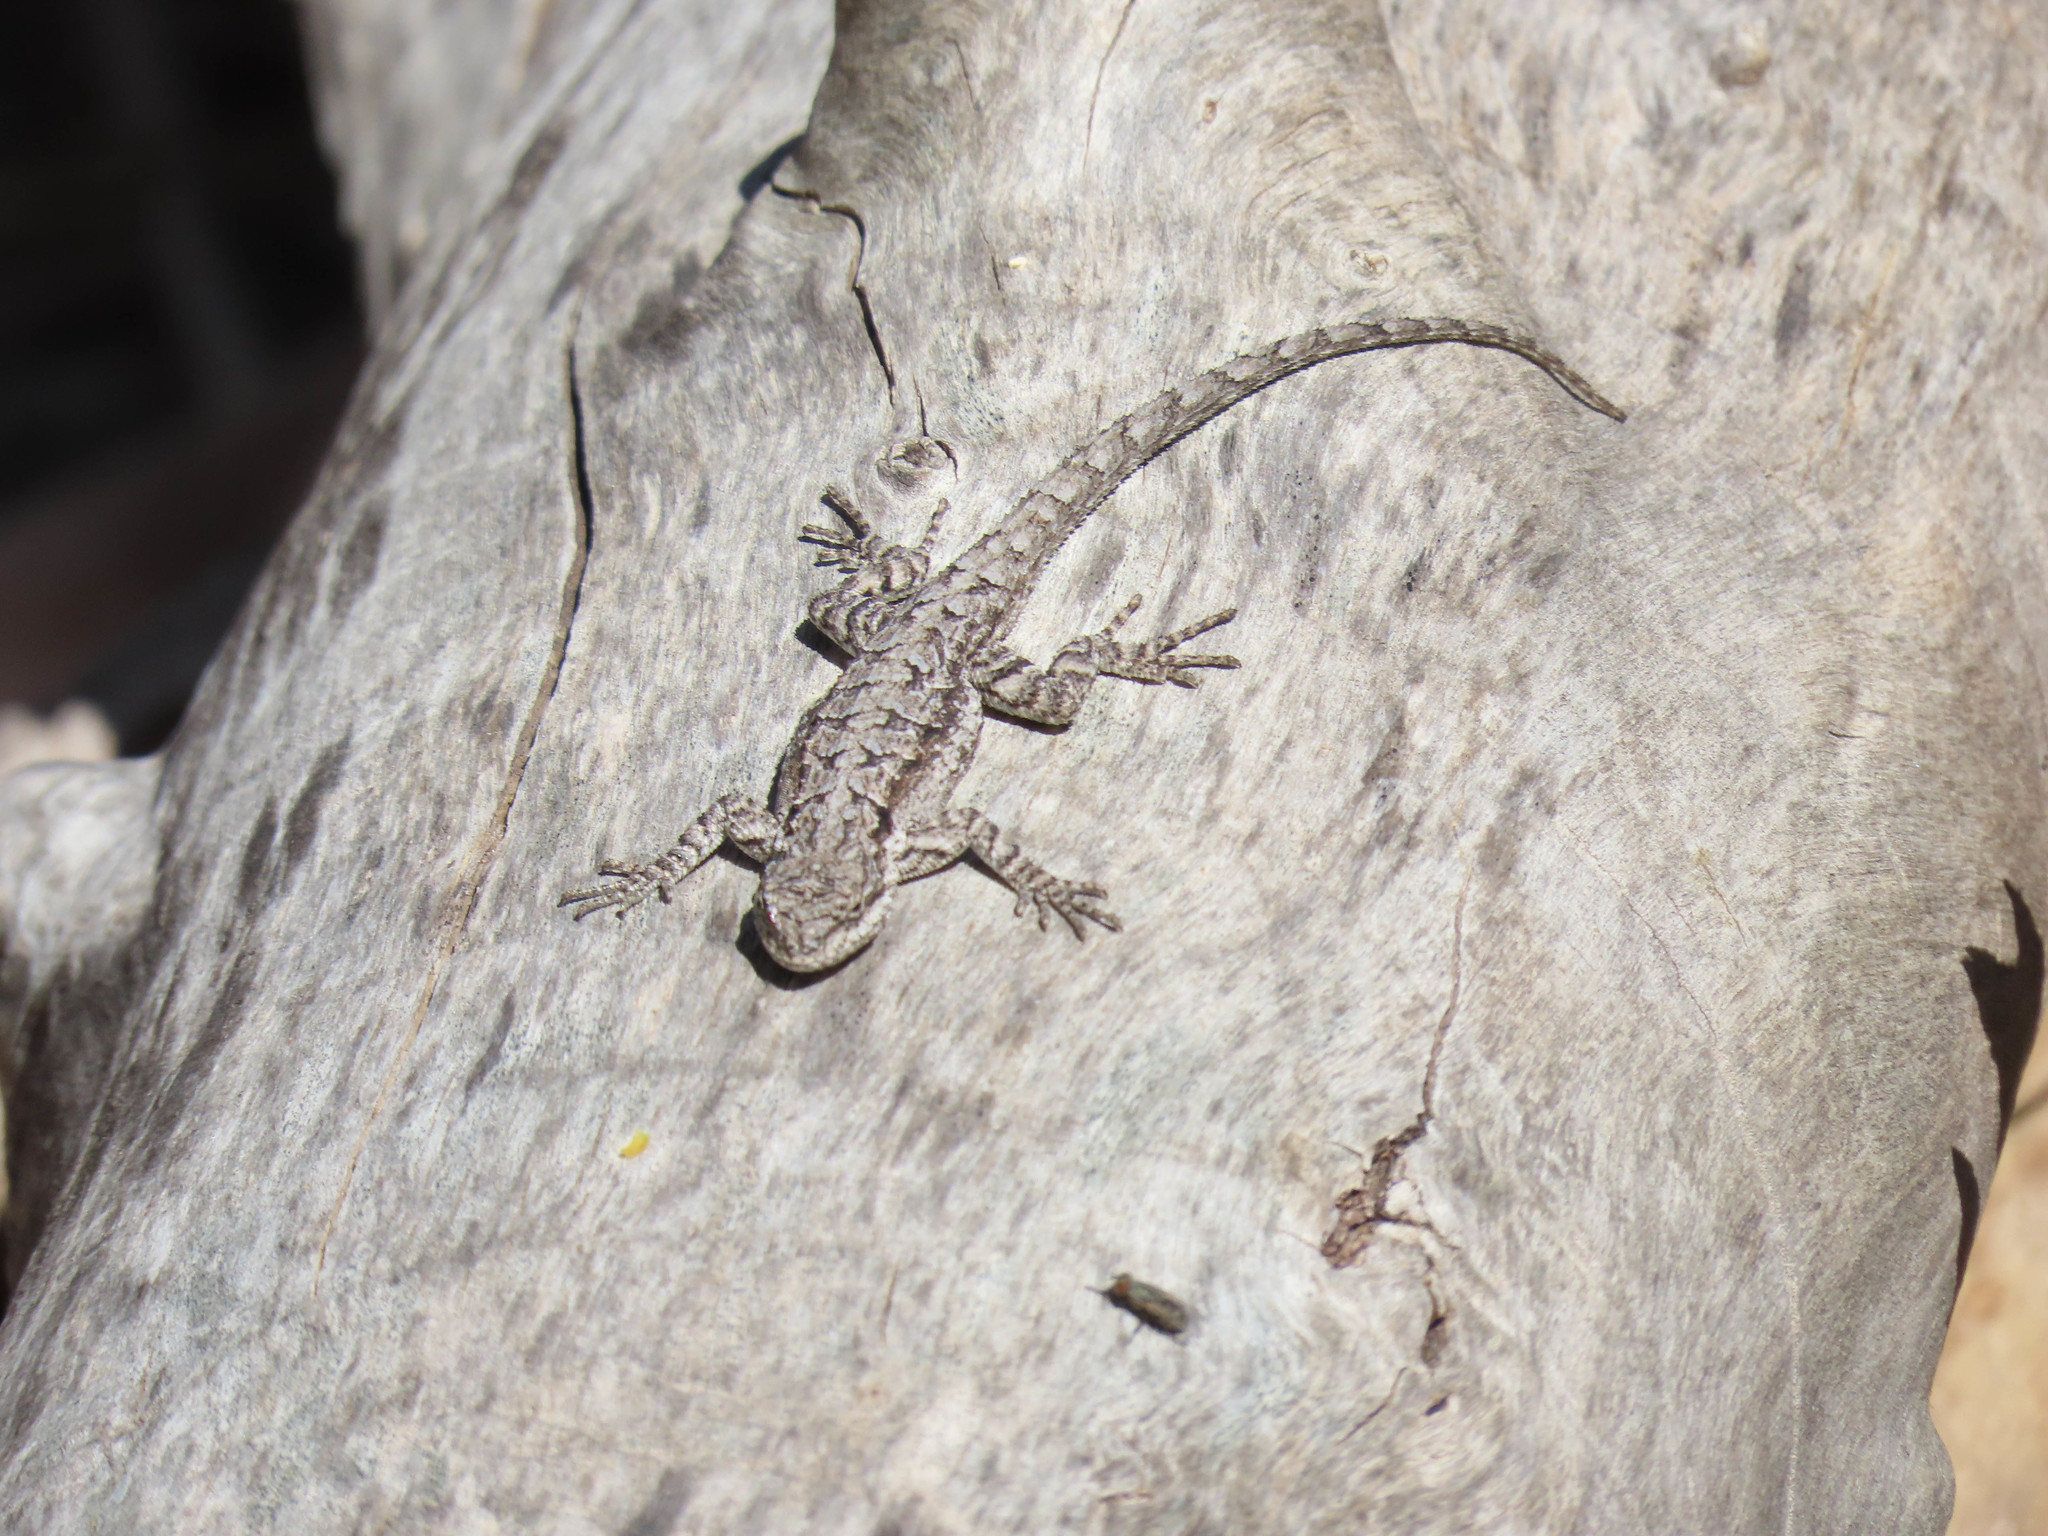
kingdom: Animalia
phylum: Chordata
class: Squamata
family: Phrynosomatidae
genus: Urosaurus
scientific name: Urosaurus ornatus
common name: Ornate tree lizard
